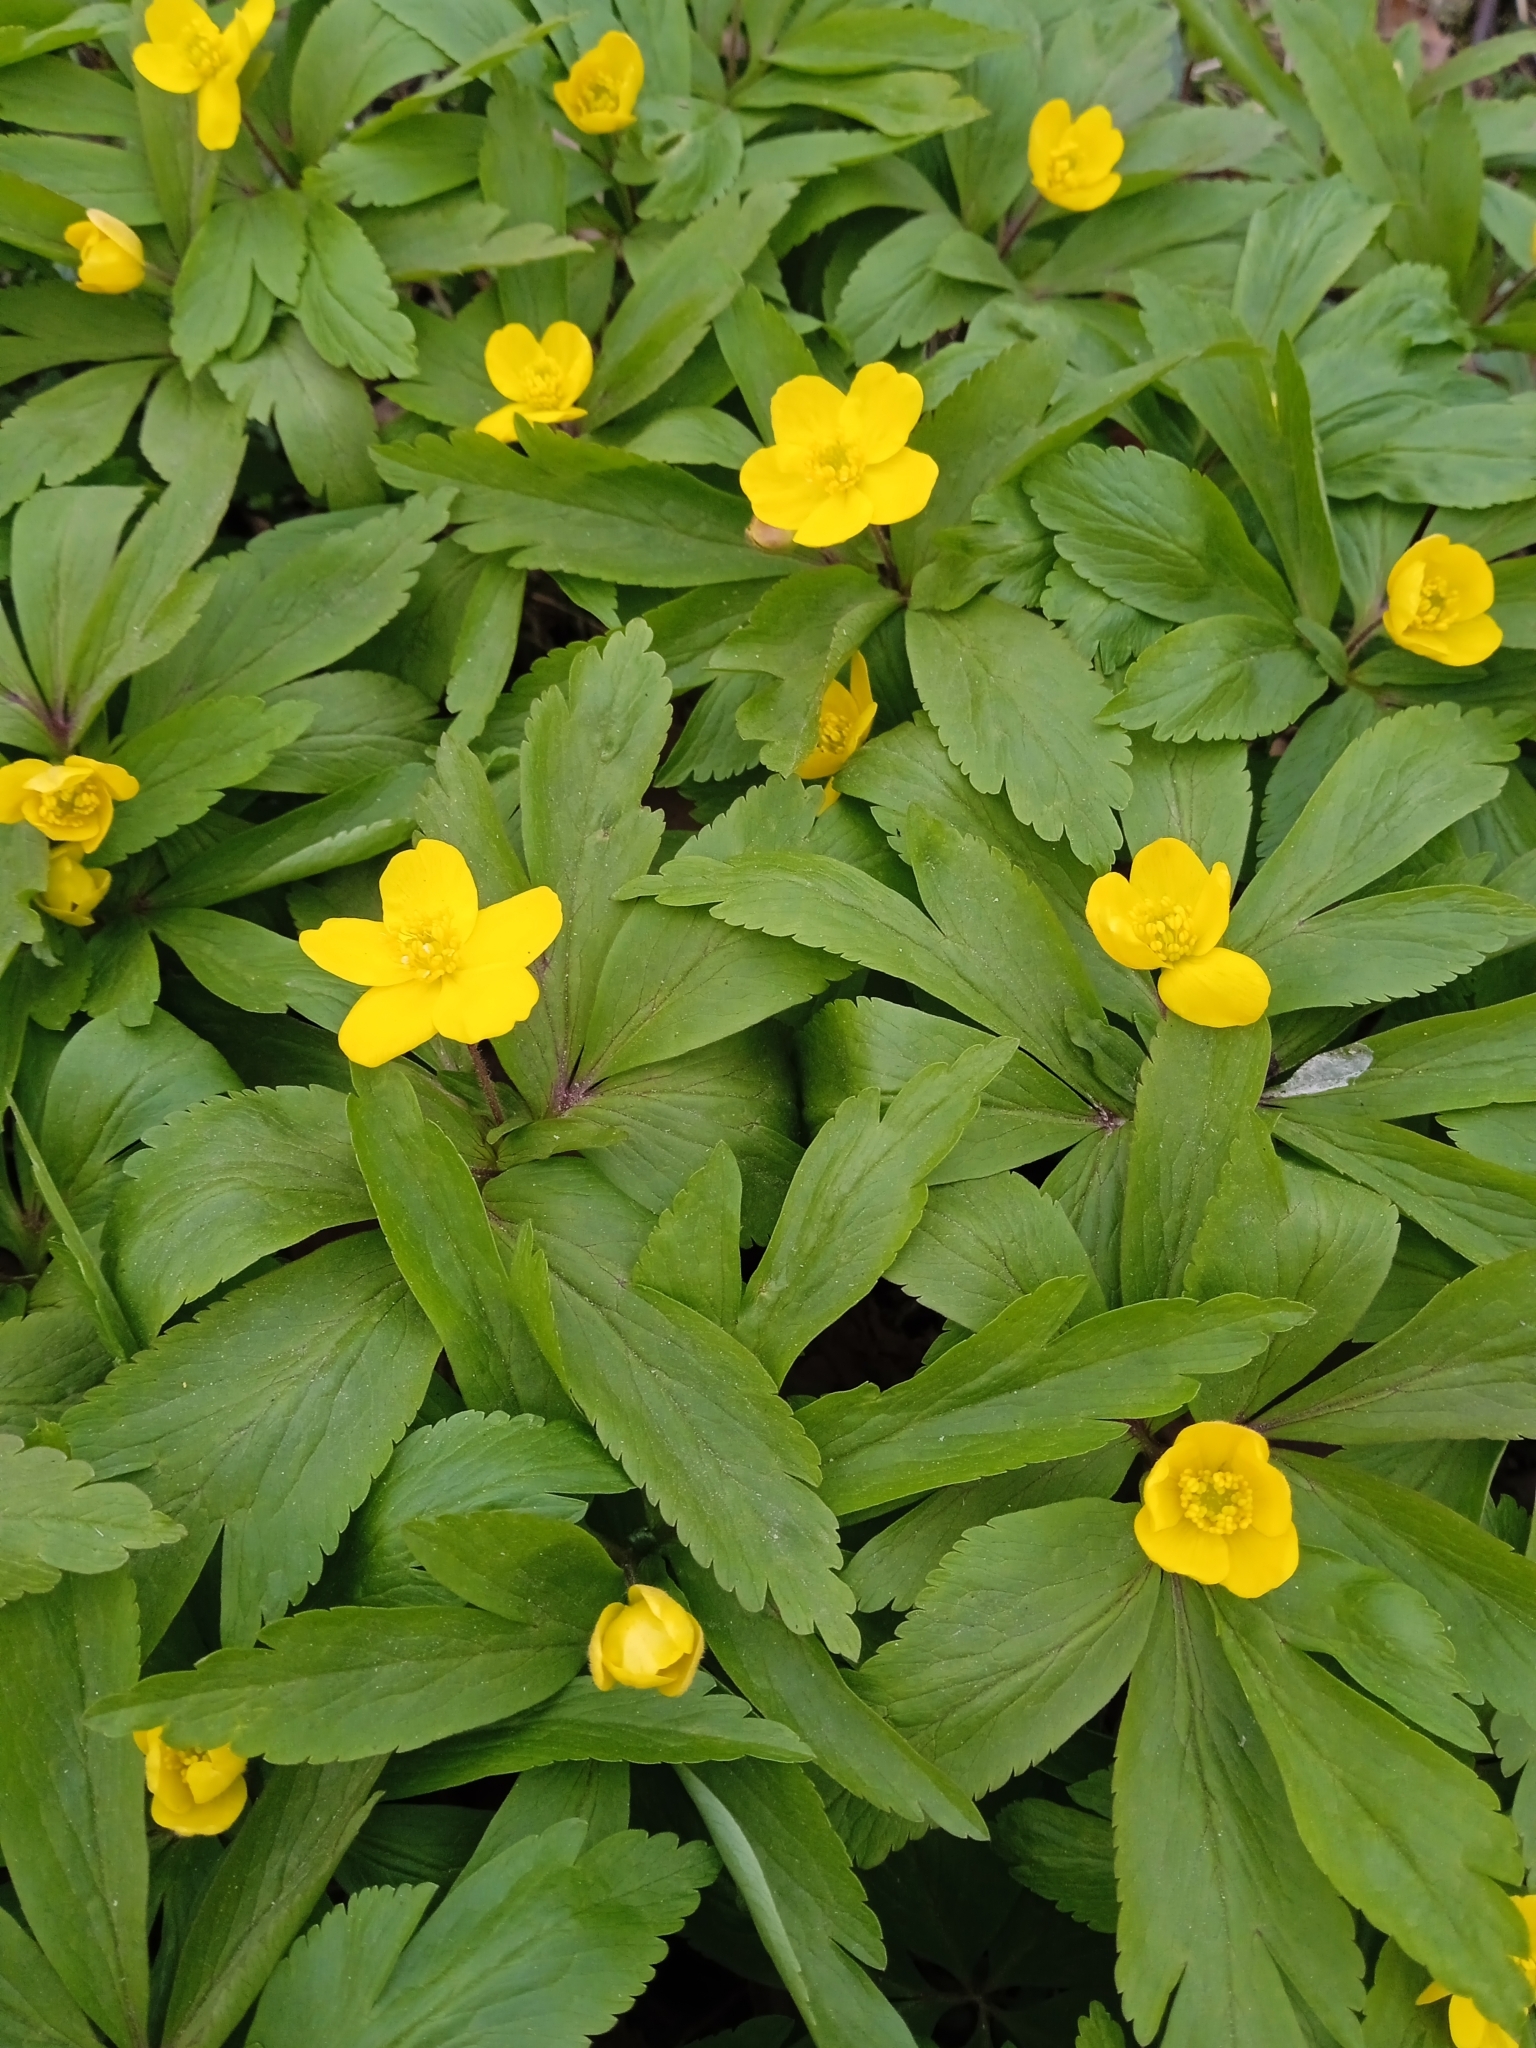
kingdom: Plantae
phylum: Tracheophyta
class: Magnoliopsida
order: Ranunculales
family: Ranunculaceae
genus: Anemone
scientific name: Anemone ranunculoides
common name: Yellow anemone
